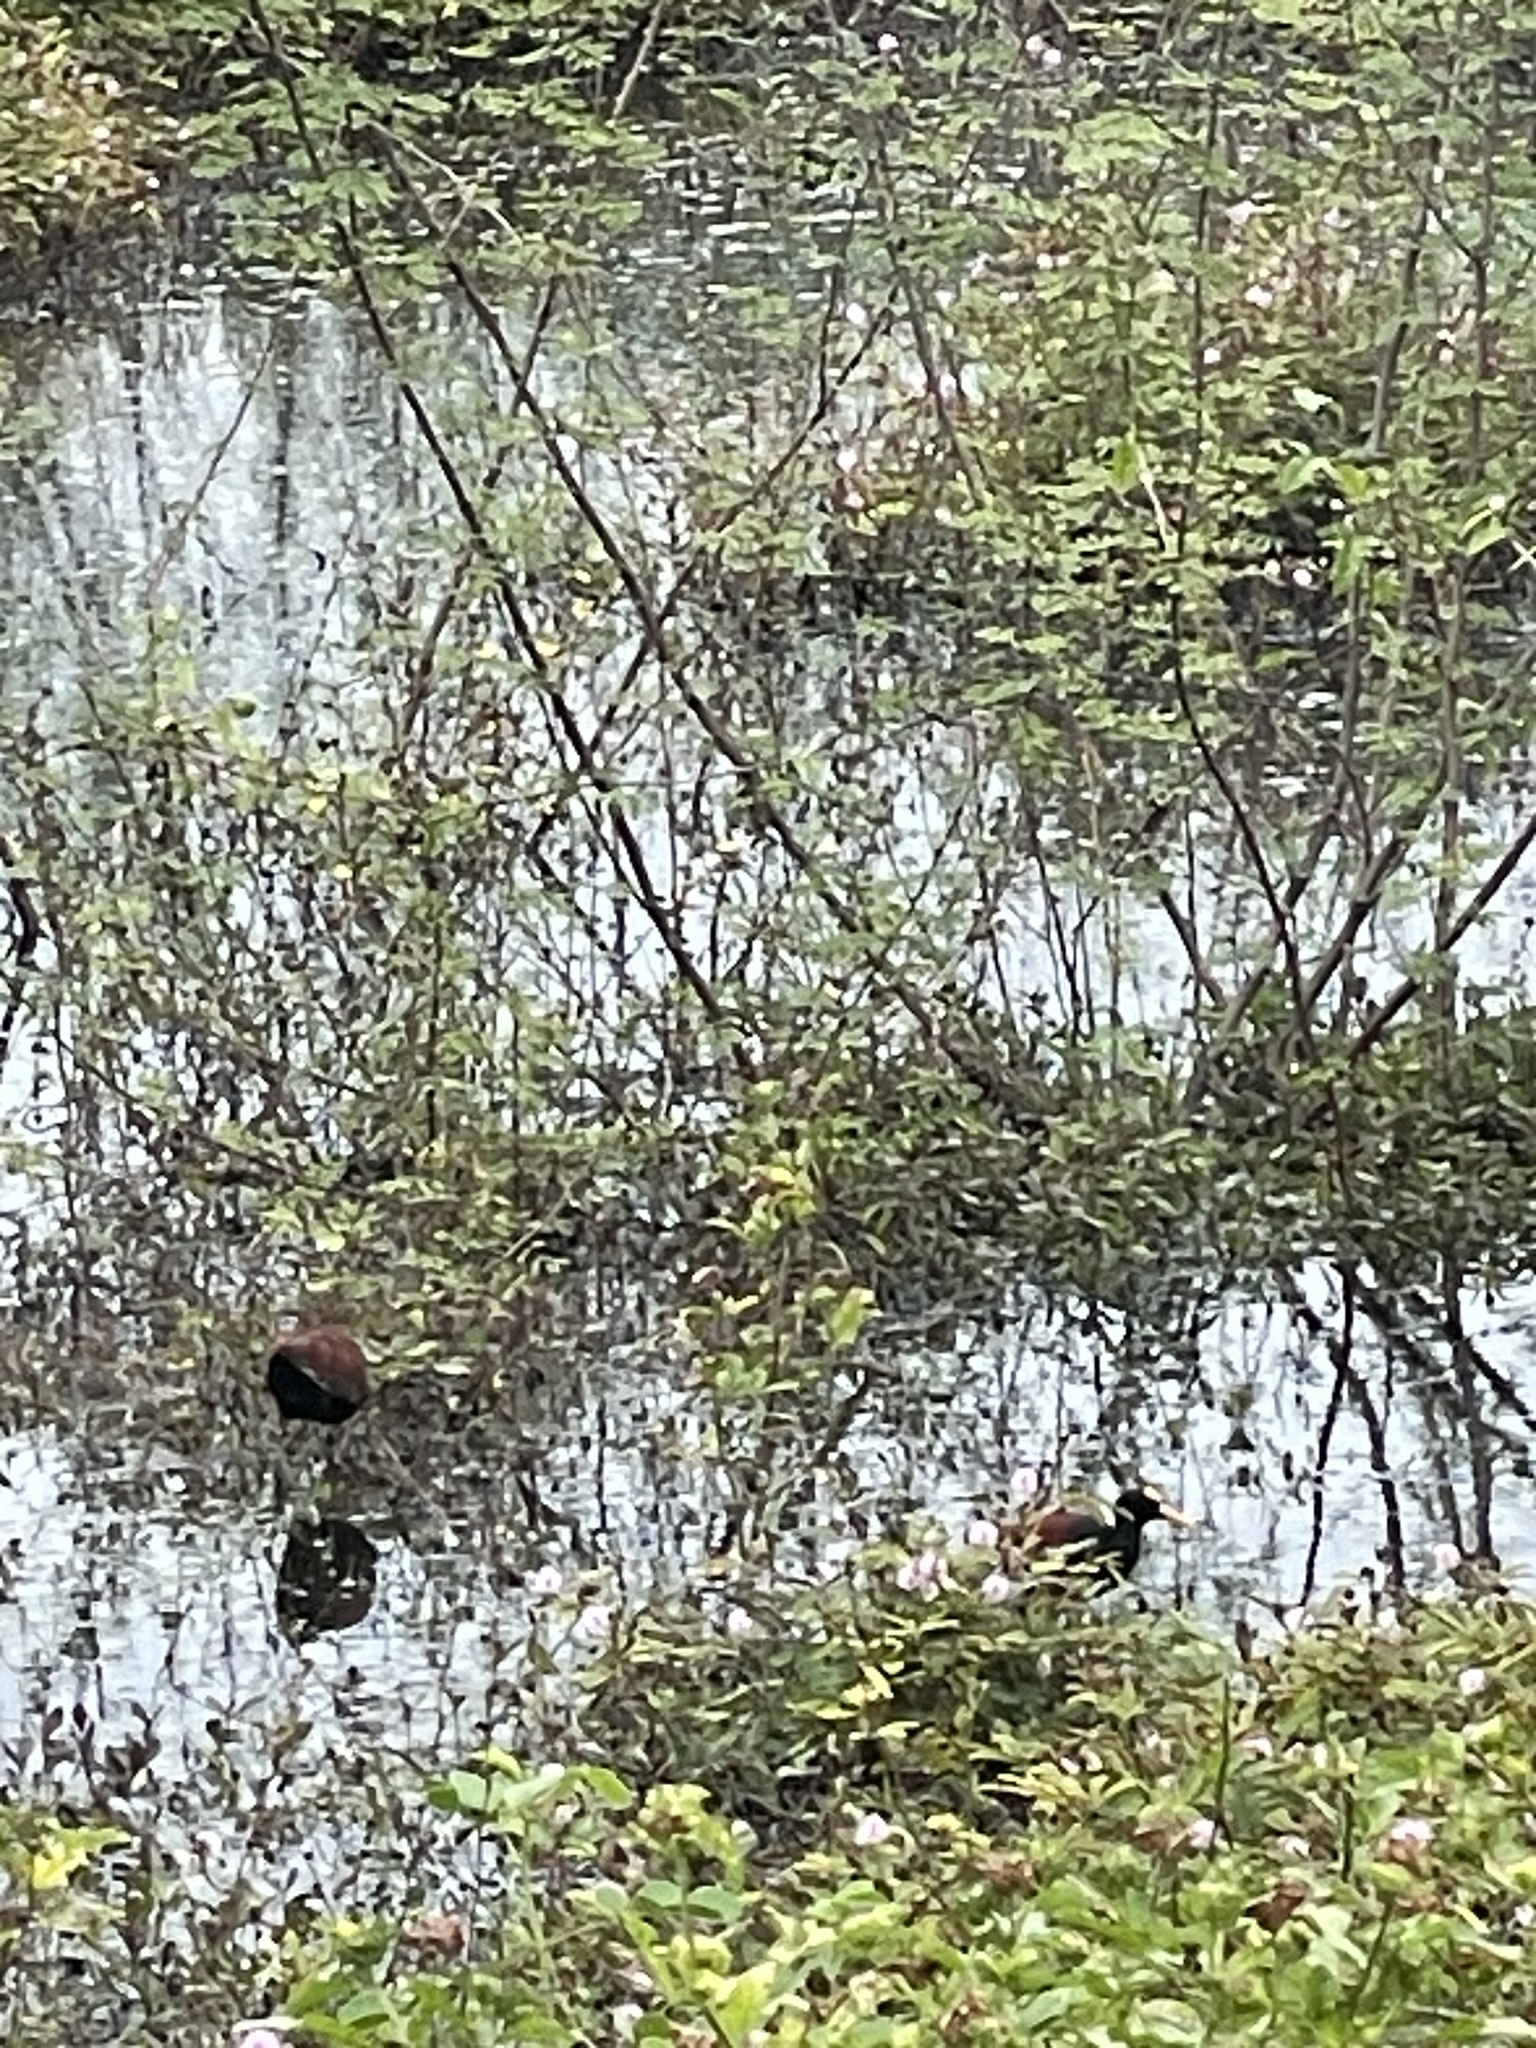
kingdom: Animalia
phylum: Chordata
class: Aves
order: Charadriiformes
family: Jacanidae
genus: Jacana
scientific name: Jacana spinosa
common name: Northern jacana
